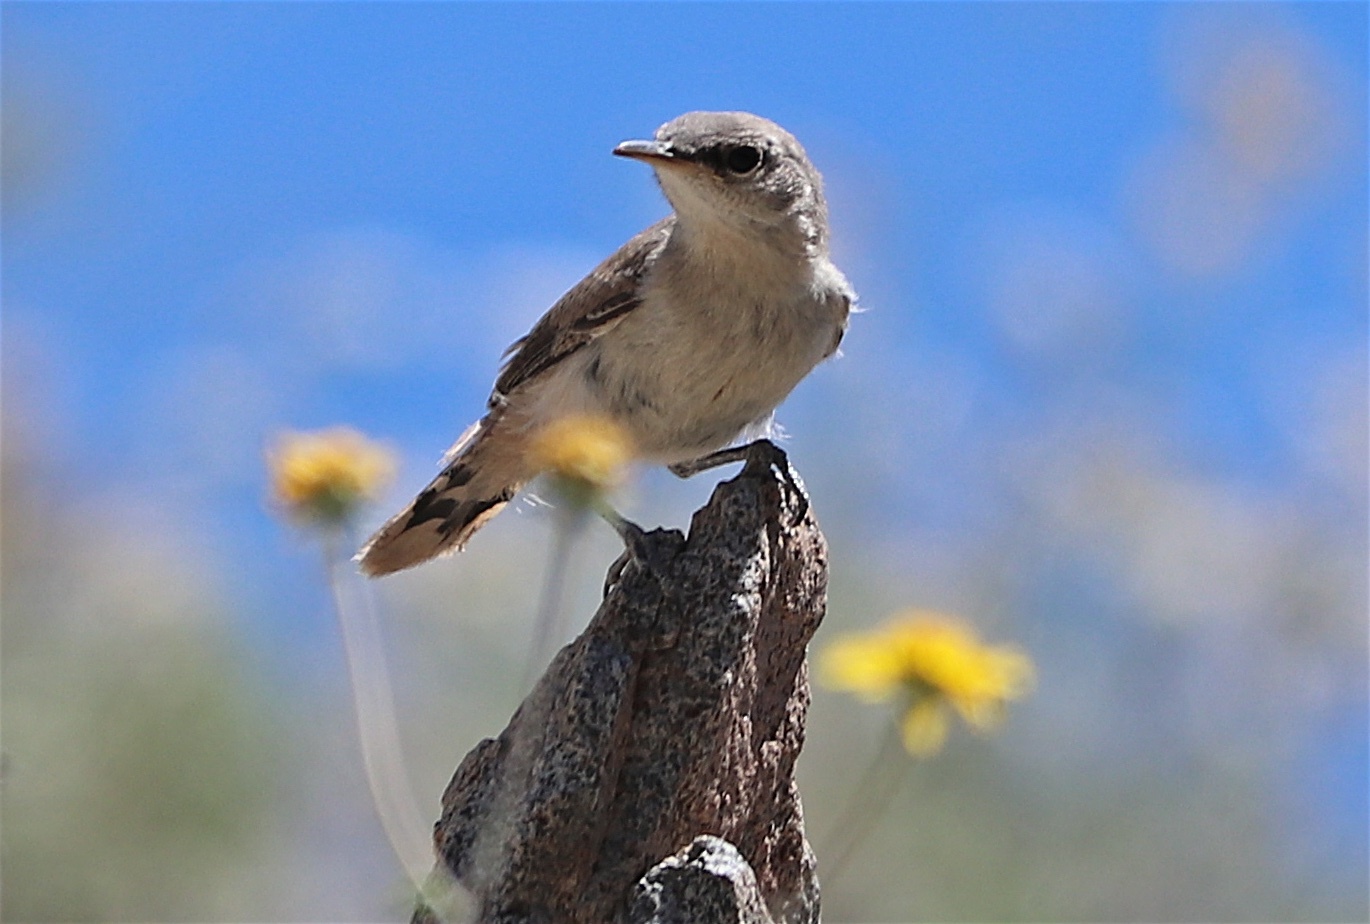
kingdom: Animalia
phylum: Chordata
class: Aves
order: Passeriformes
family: Troglodytidae
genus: Salpinctes
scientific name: Salpinctes obsoletus
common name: Rock wren
